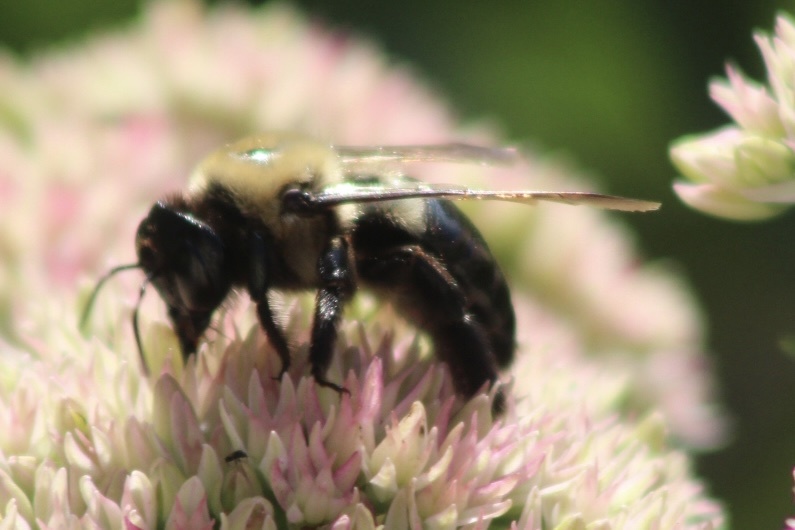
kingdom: Animalia
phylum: Arthropoda
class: Insecta
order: Hymenoptera
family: Apidae
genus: Xylocopa
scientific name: Xylocopa virginica
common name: Carpenter bee
